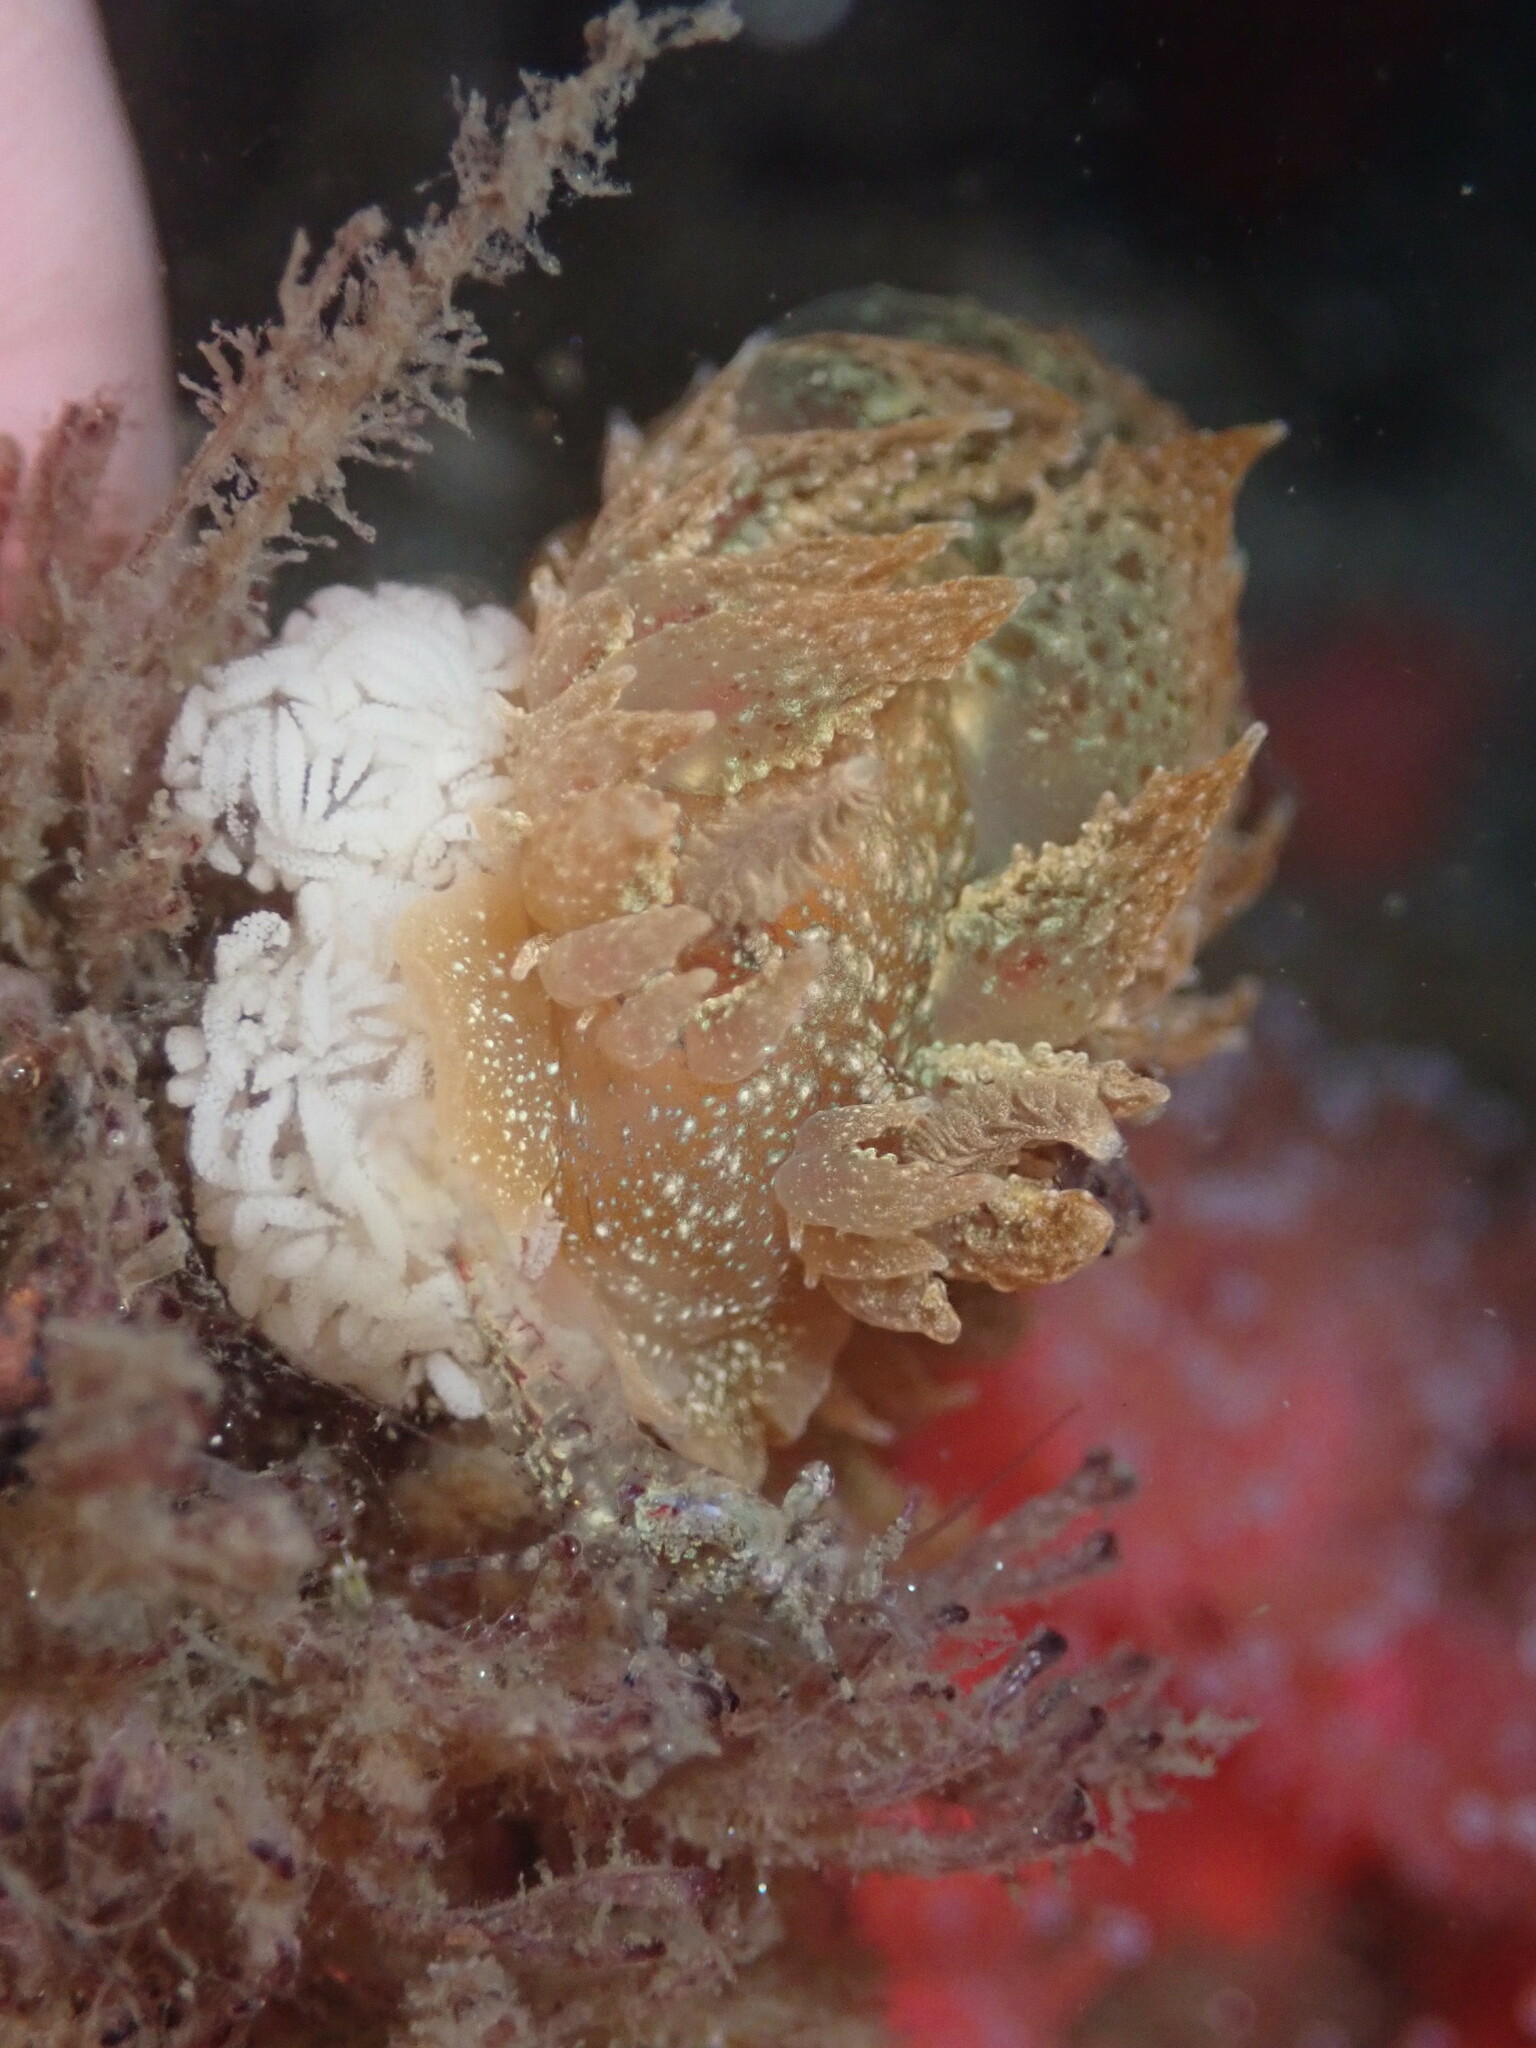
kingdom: Animalia
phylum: Mollusca
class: Gastropoda
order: Nudibranchia
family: Dironidae
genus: Dirona
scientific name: Dirona picta
